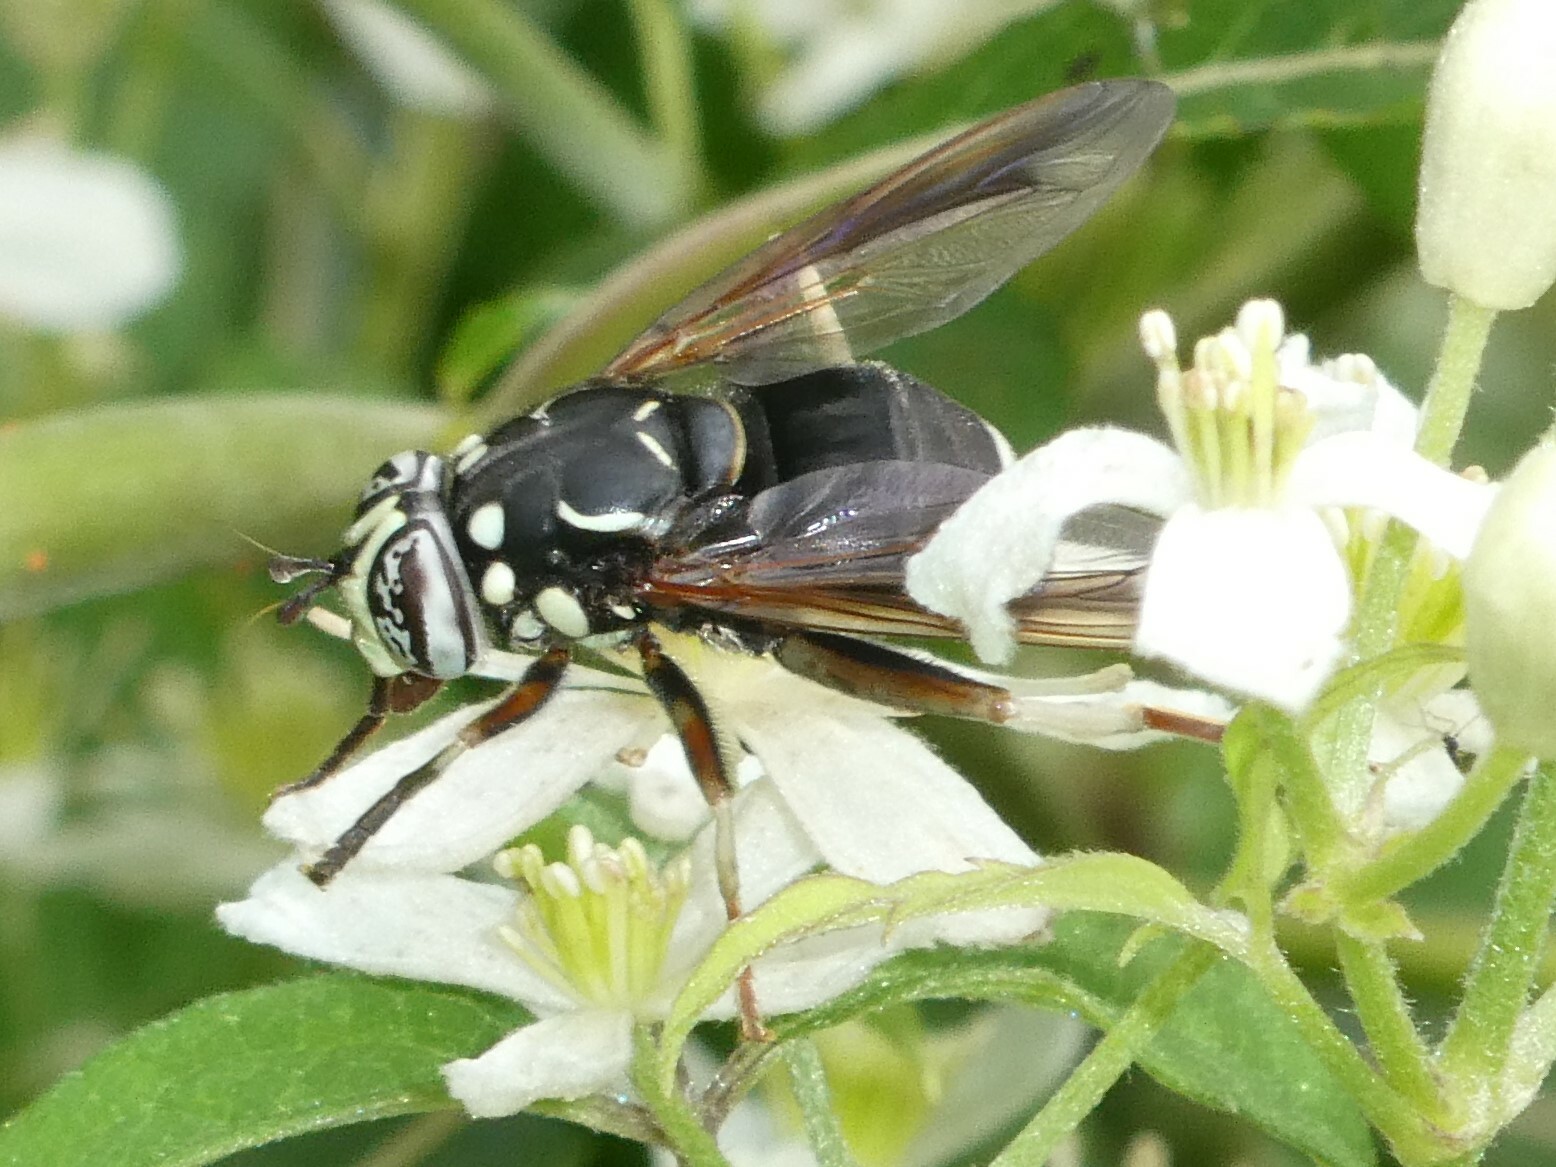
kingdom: Animalia
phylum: Arthropoda
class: Insecta
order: Diptera
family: Syrphidae
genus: Spilomyia
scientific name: Spilomyia fusca
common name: Bald-faced hornet fly
